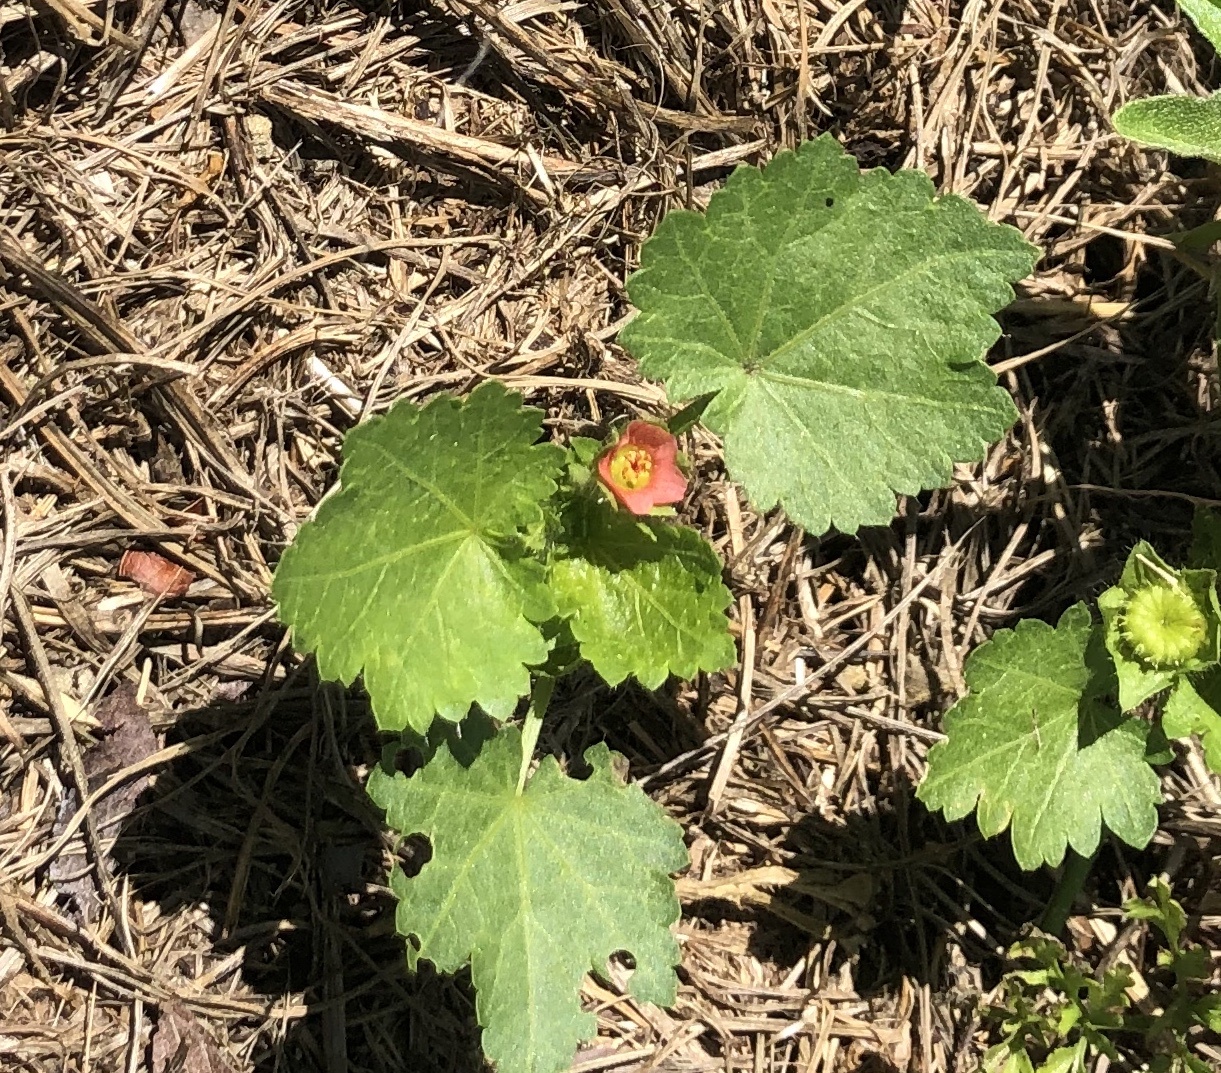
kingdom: Plantae
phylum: Tracheophyta
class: Magnoliopsida
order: Malvales
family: Malvaceae
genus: Modiola
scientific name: Modiola caroliniana
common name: Carolina bristlemallow
